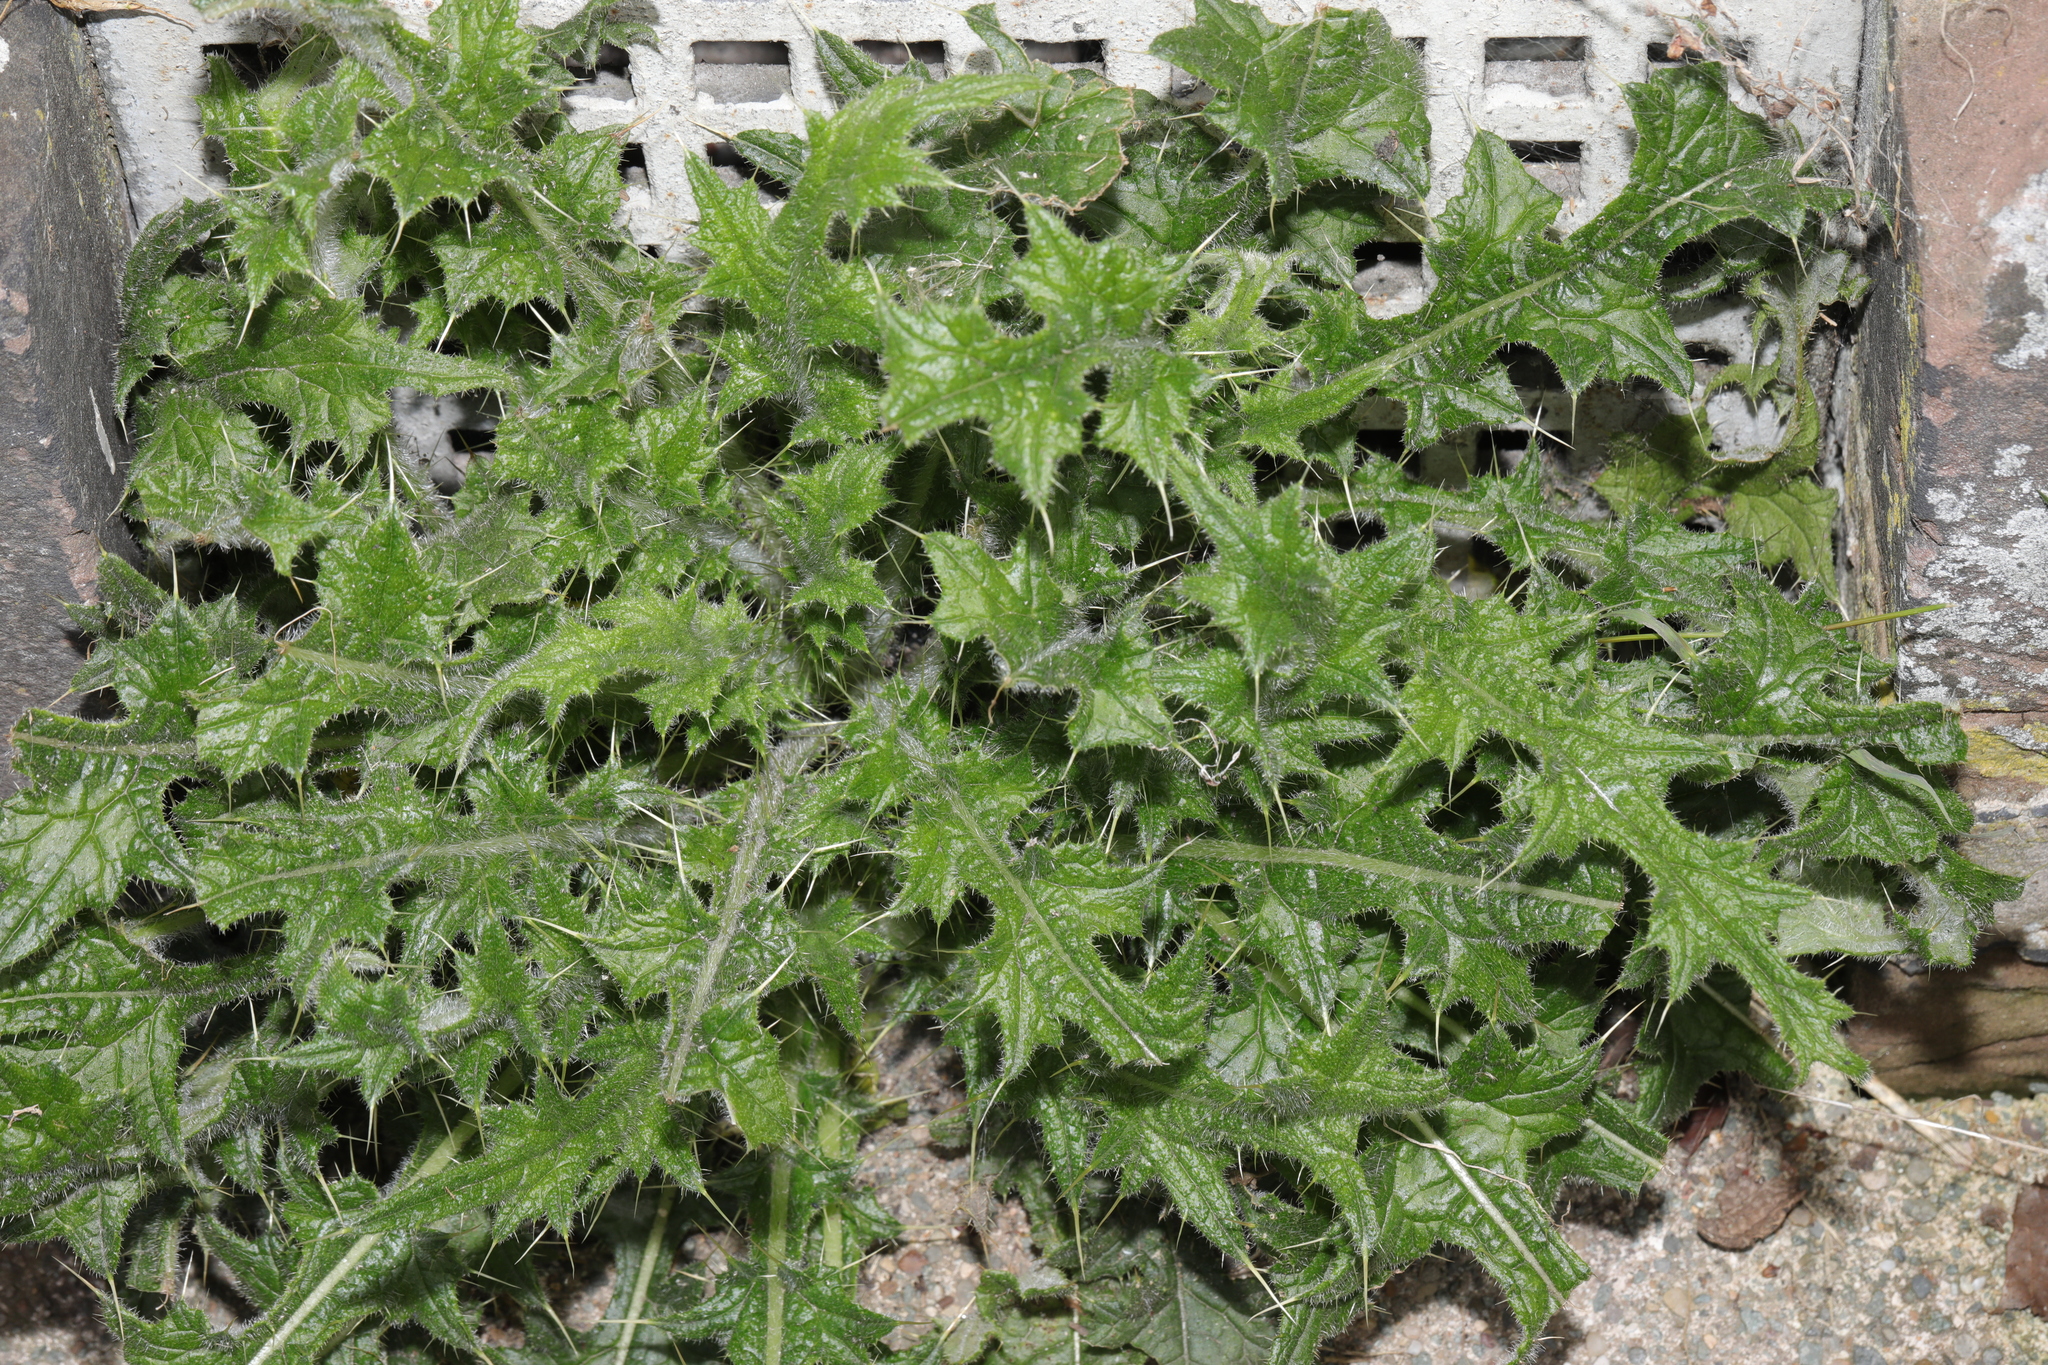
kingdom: Plantae
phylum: Tracheophyta
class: Magnoliopsida
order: Asterales
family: Asteraceae
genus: Cirsium
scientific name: Cirsium vulgare
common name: Bull thistle
